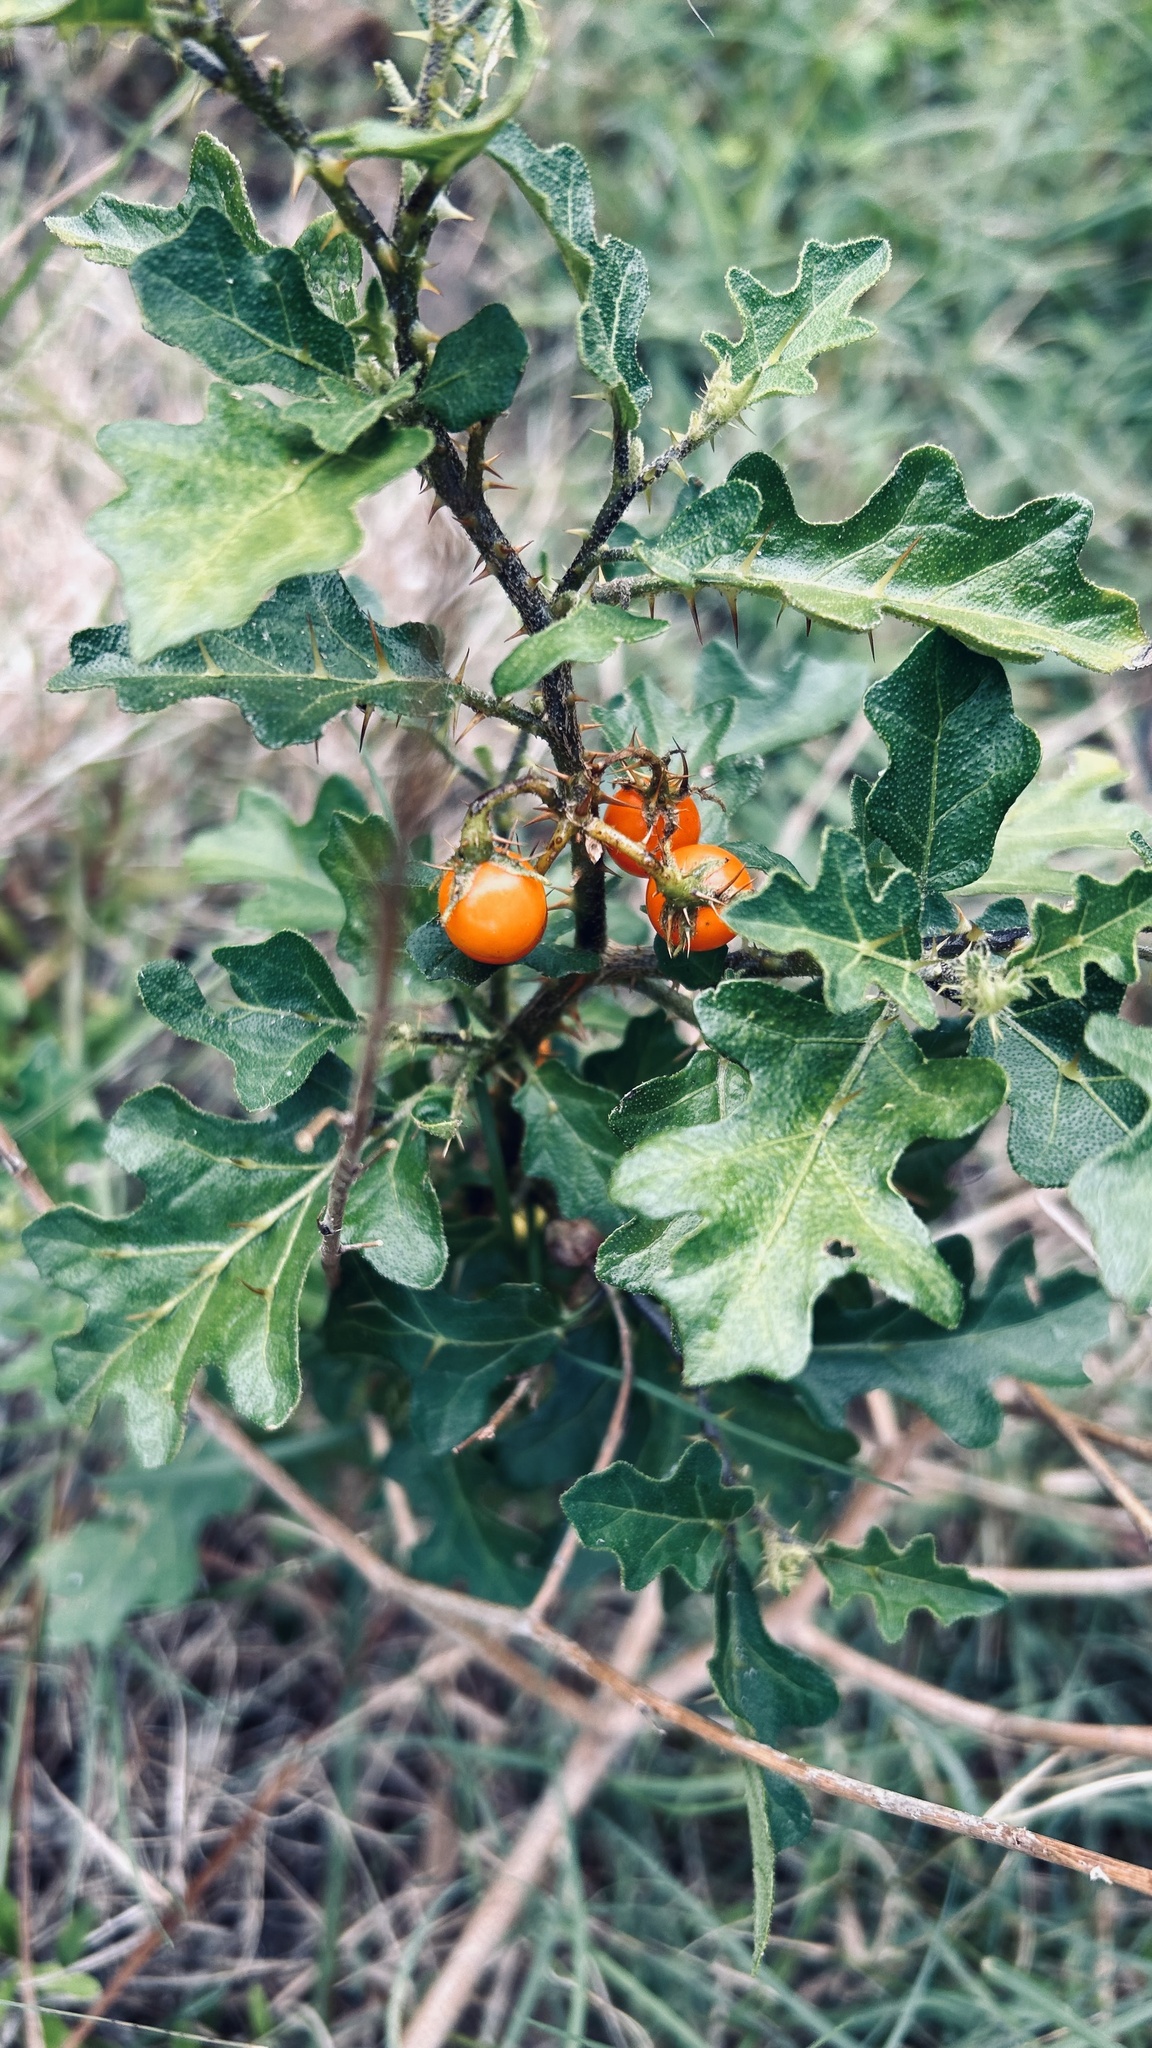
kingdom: Plantae
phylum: Tracheophyta
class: Magnoliopsida
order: Solanales
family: Solanaceae
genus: Solanum
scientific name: Solanum rubetorum
